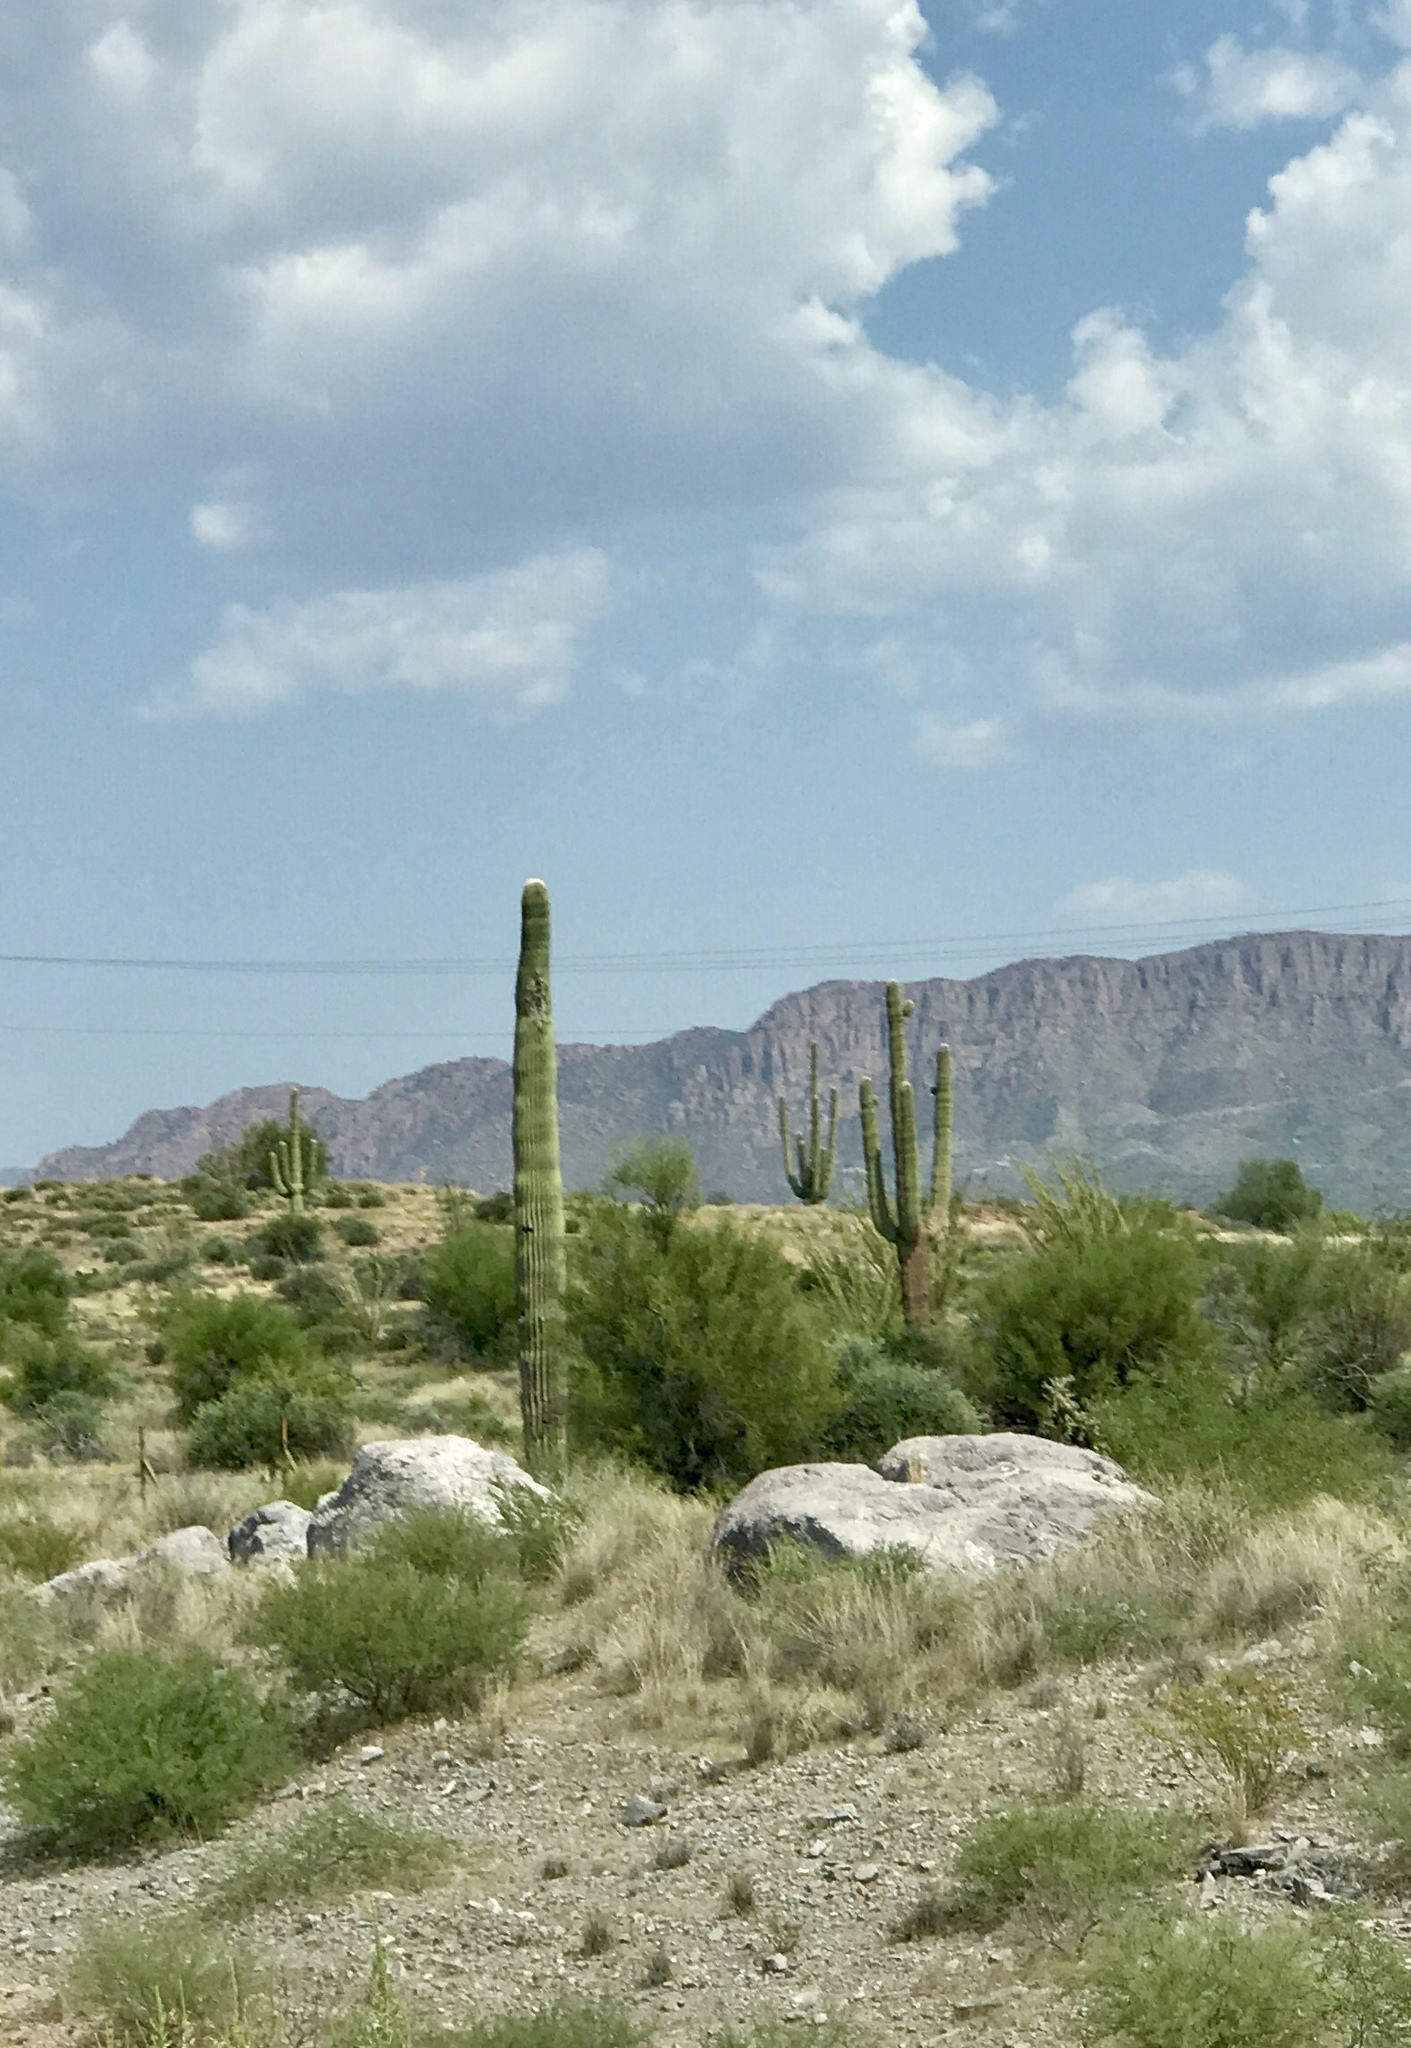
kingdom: Plantae
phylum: Tracheophyta
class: Magnoliopsida
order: Caryophyllales
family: Cactaceae
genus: Carnegiea
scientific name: Carnegiea gigantea
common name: Saguaro
